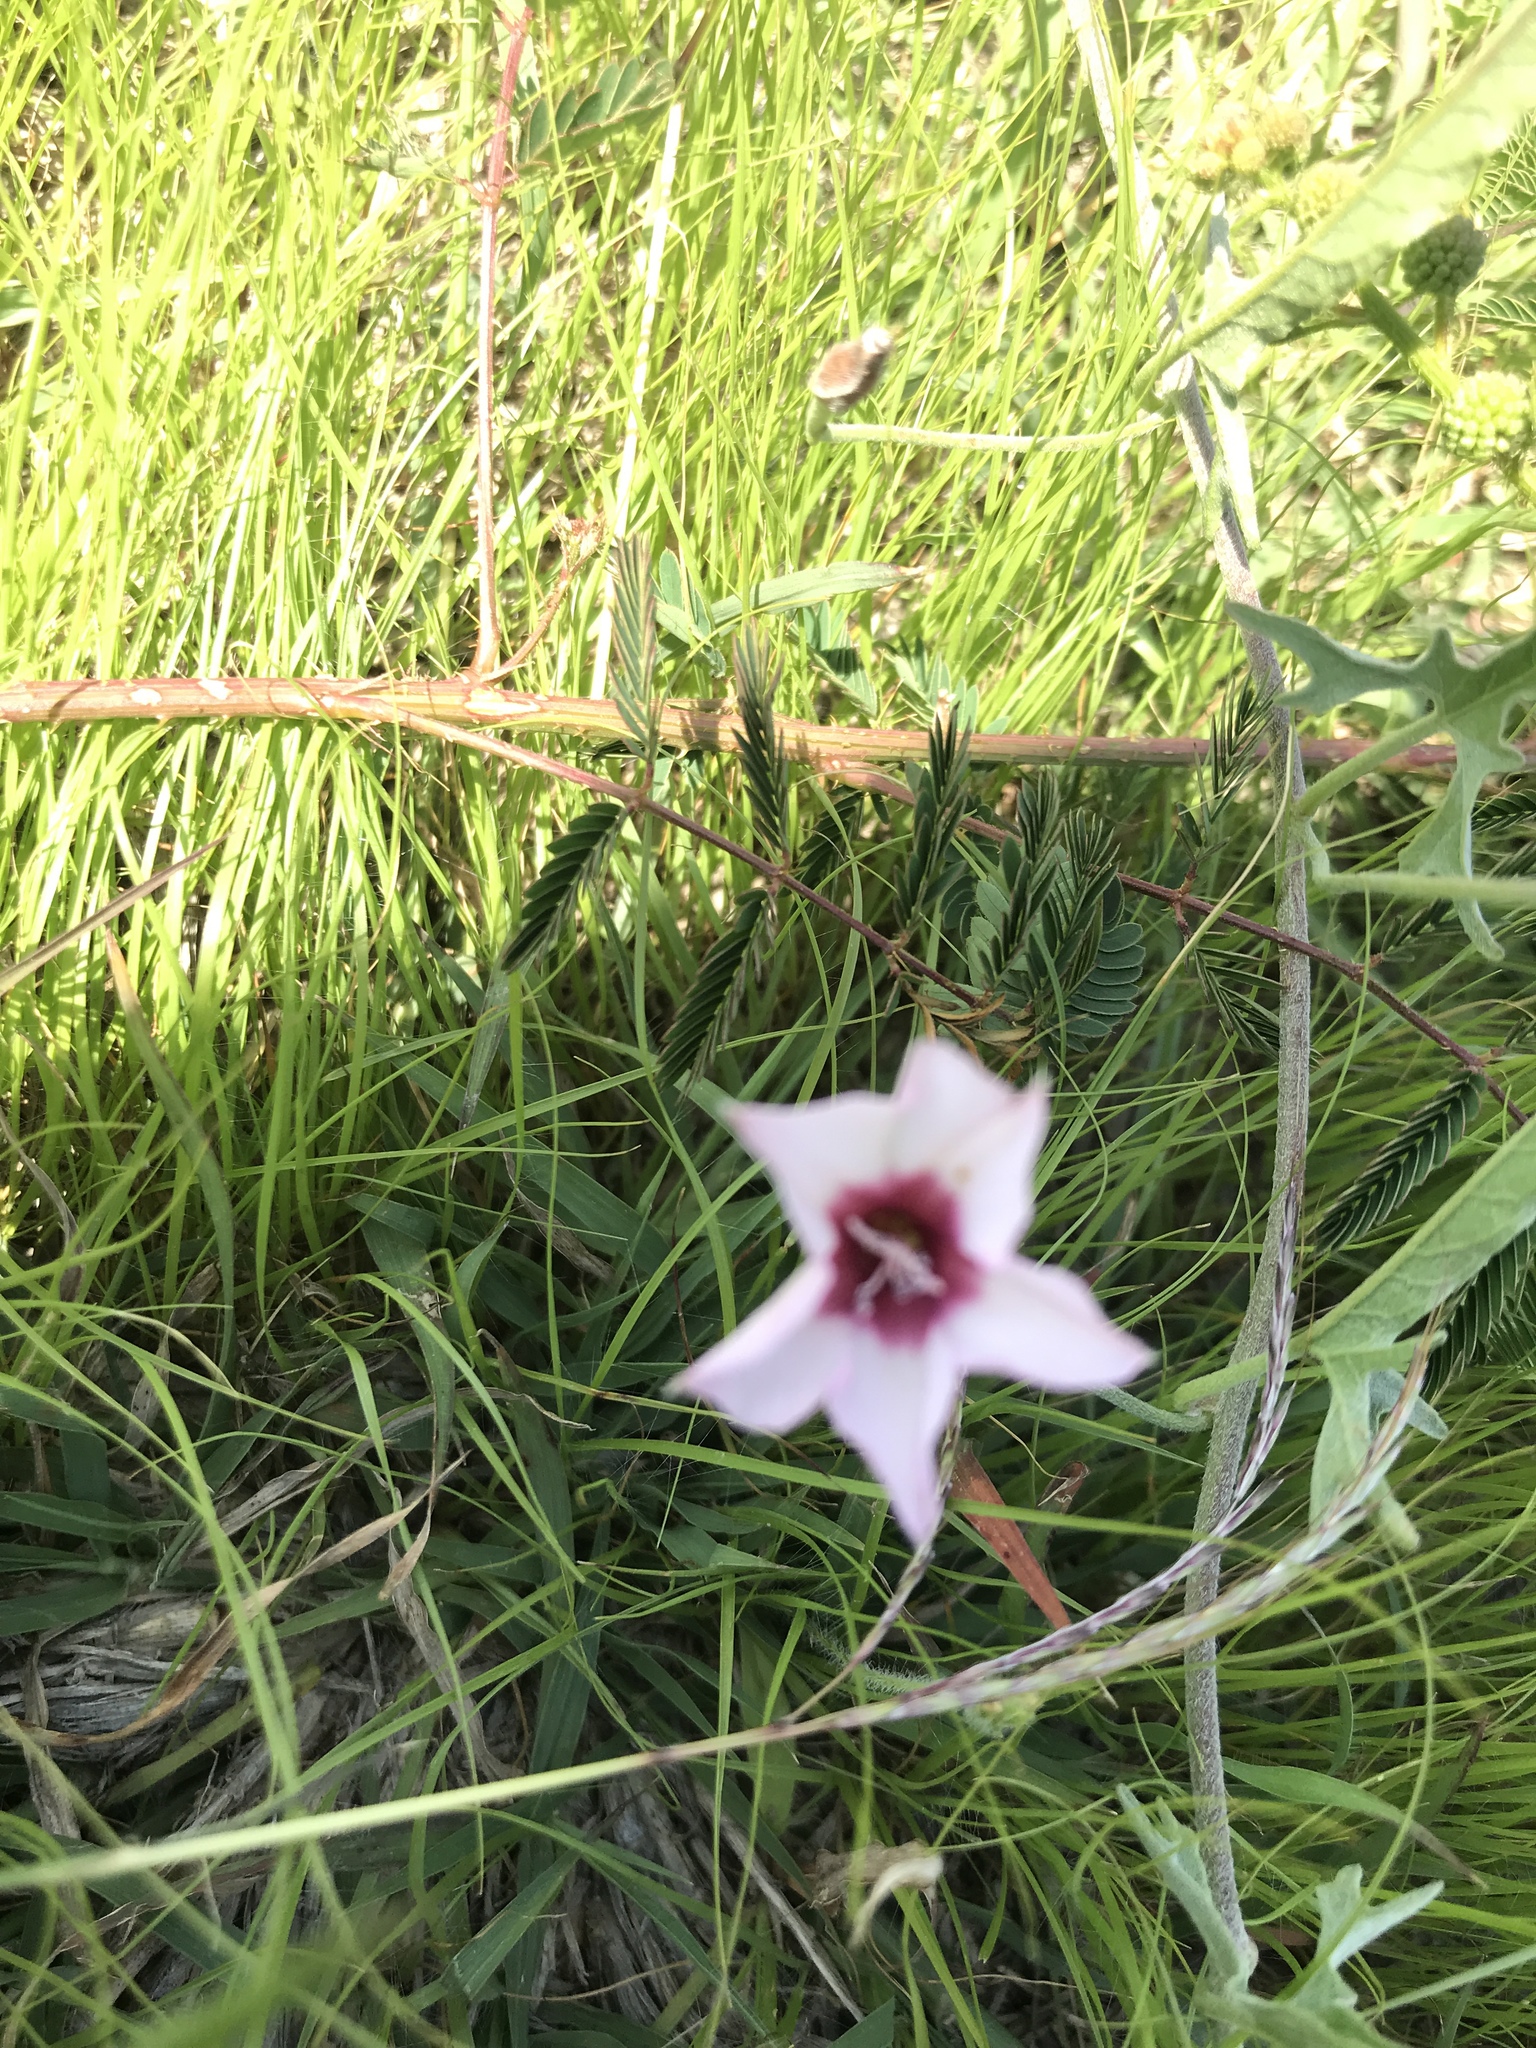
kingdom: Plantae
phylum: Tracheophyta
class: Magnoliopsida
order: Solanales
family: Convolvulaceae
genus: Convolvulus
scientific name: Convolvulus equitans
